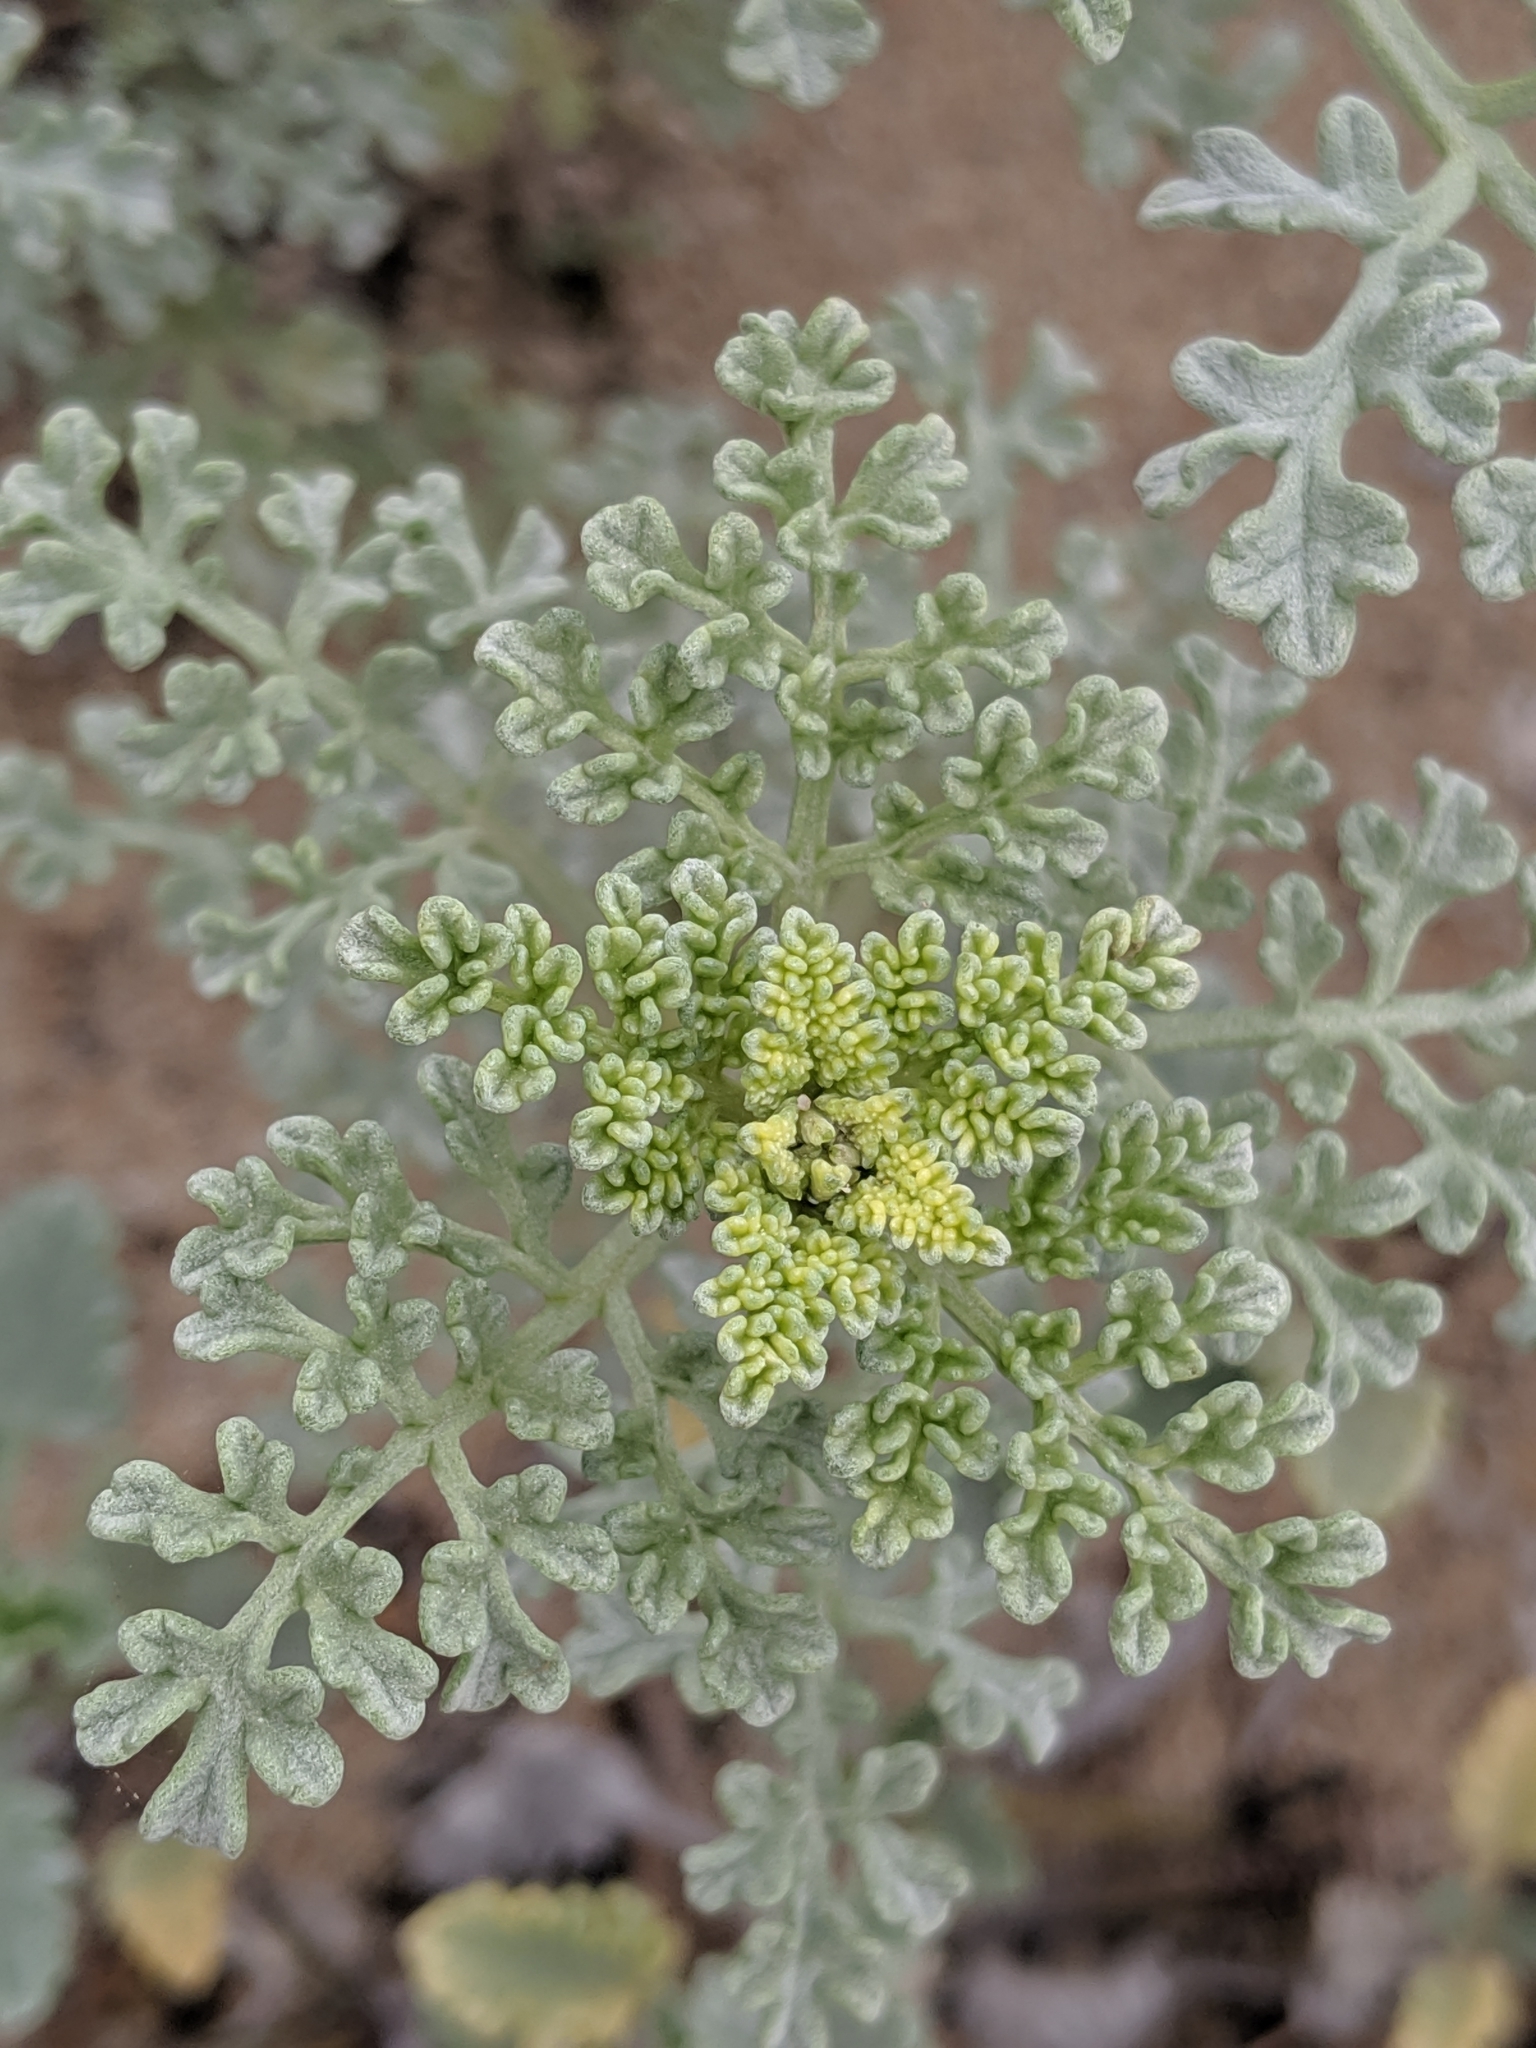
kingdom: Plantae
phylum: Tracheophyta
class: Magnoliopsida
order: Asterales
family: Asteraceae
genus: Ambrosia
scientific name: Ambrosia chamissonis
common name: Beachbur
